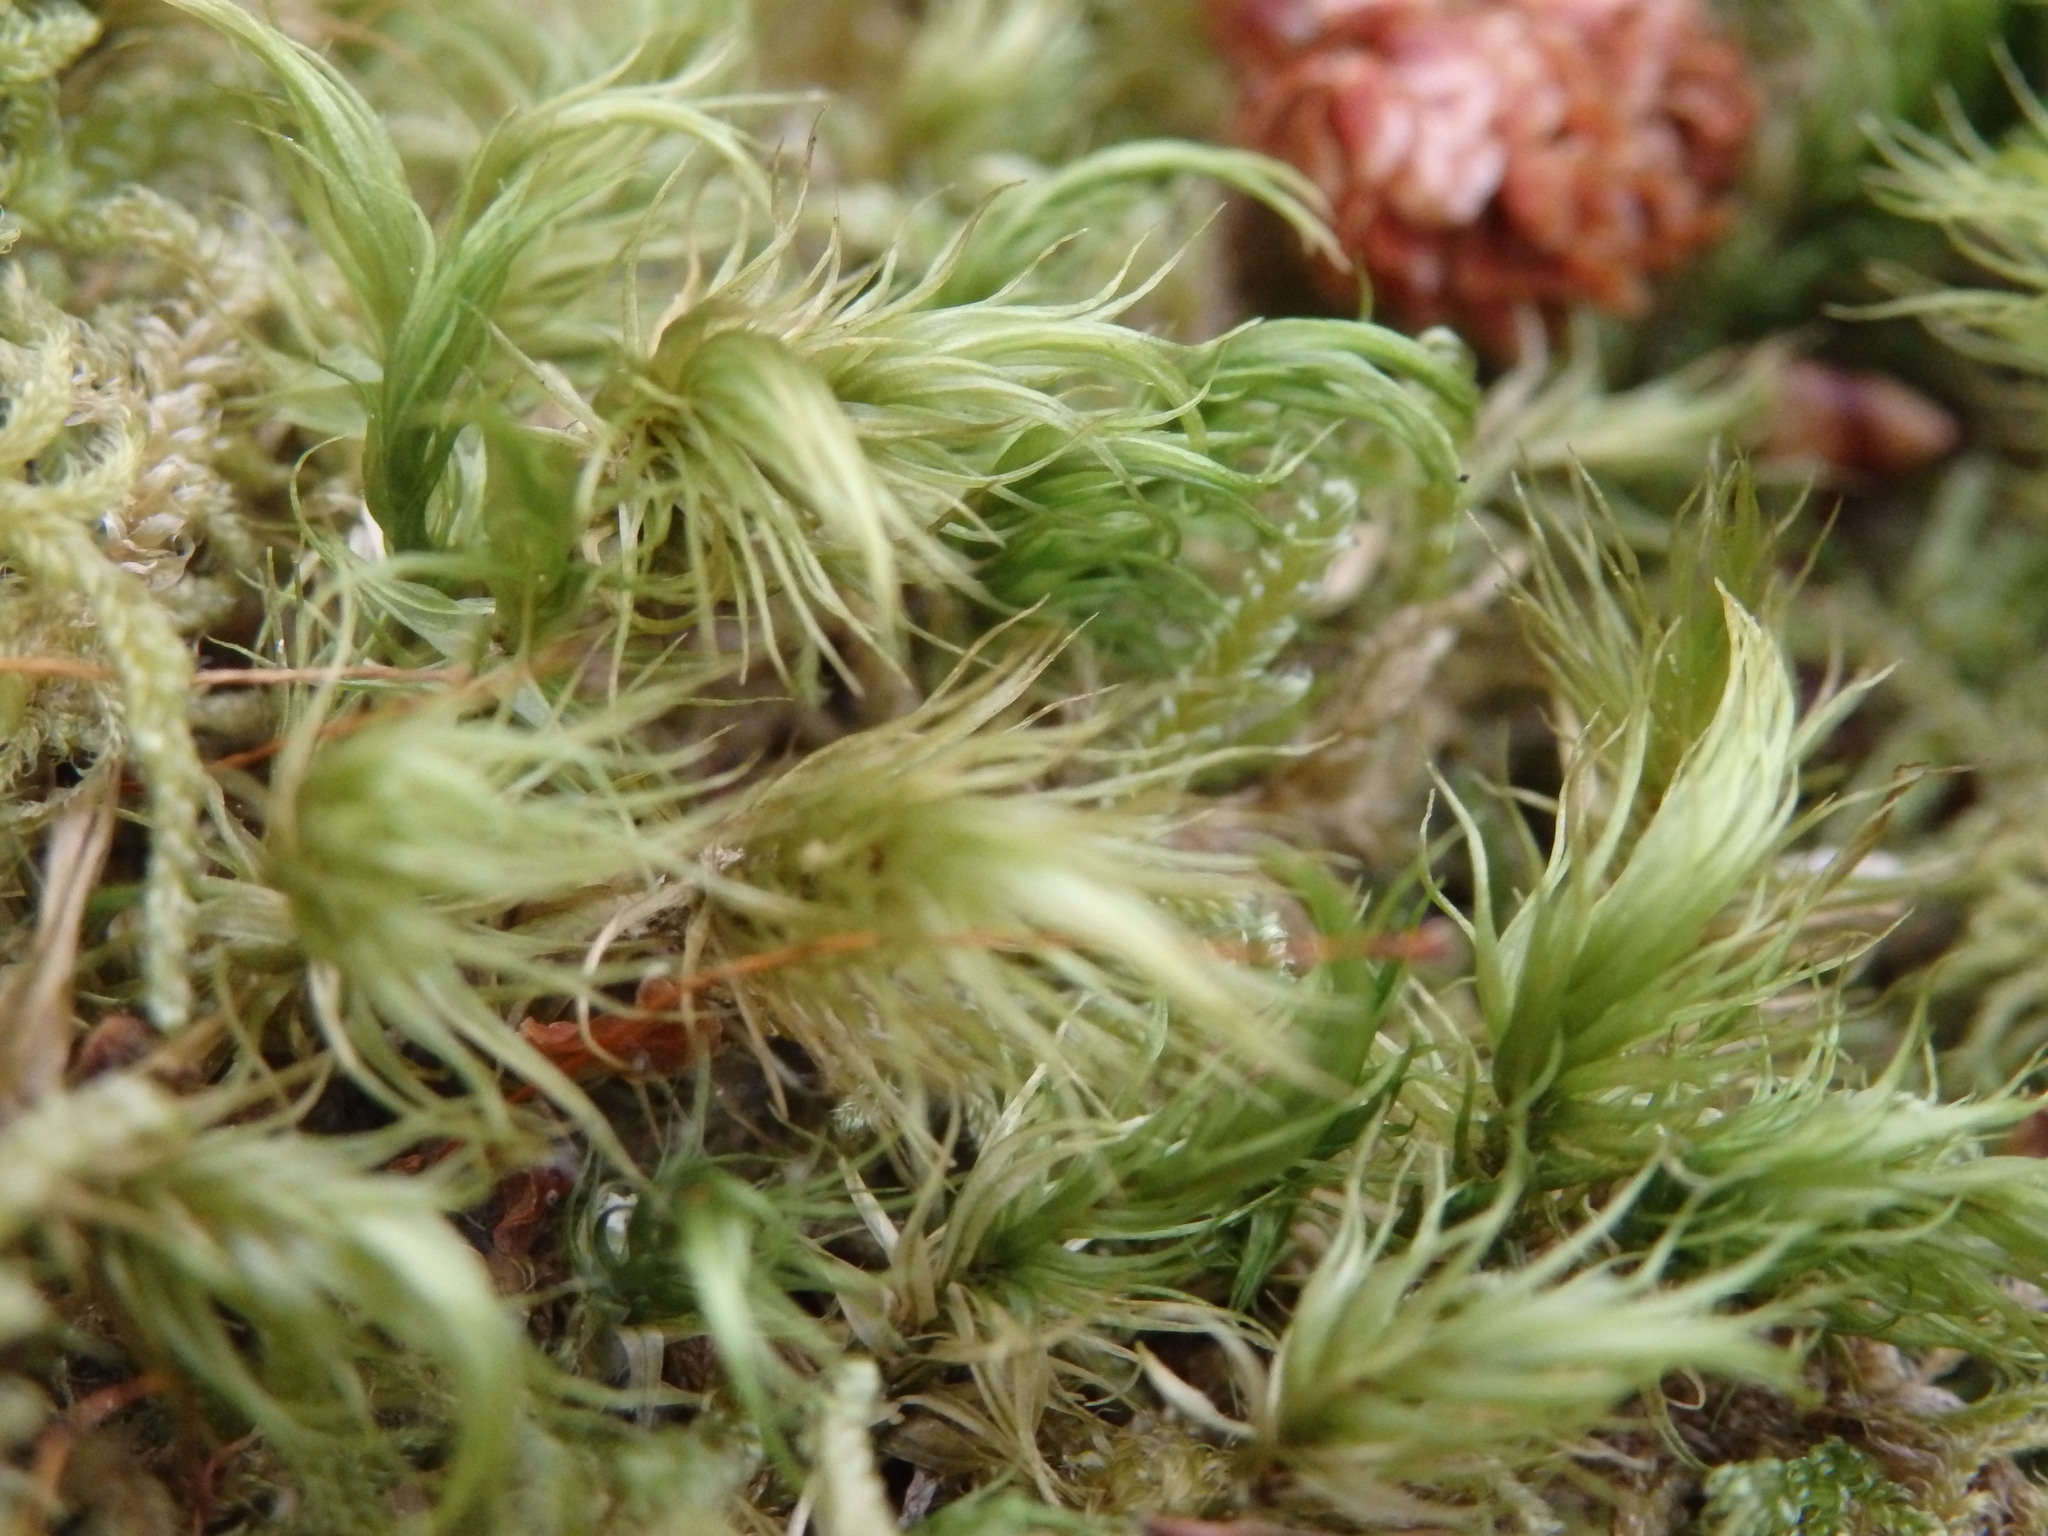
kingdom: Plantae
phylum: Bryophyta
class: Bryopsida
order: Dicranales
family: Dicranaceae
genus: Dicranum
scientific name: Dicranum scoparium
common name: Broom fork-moss
